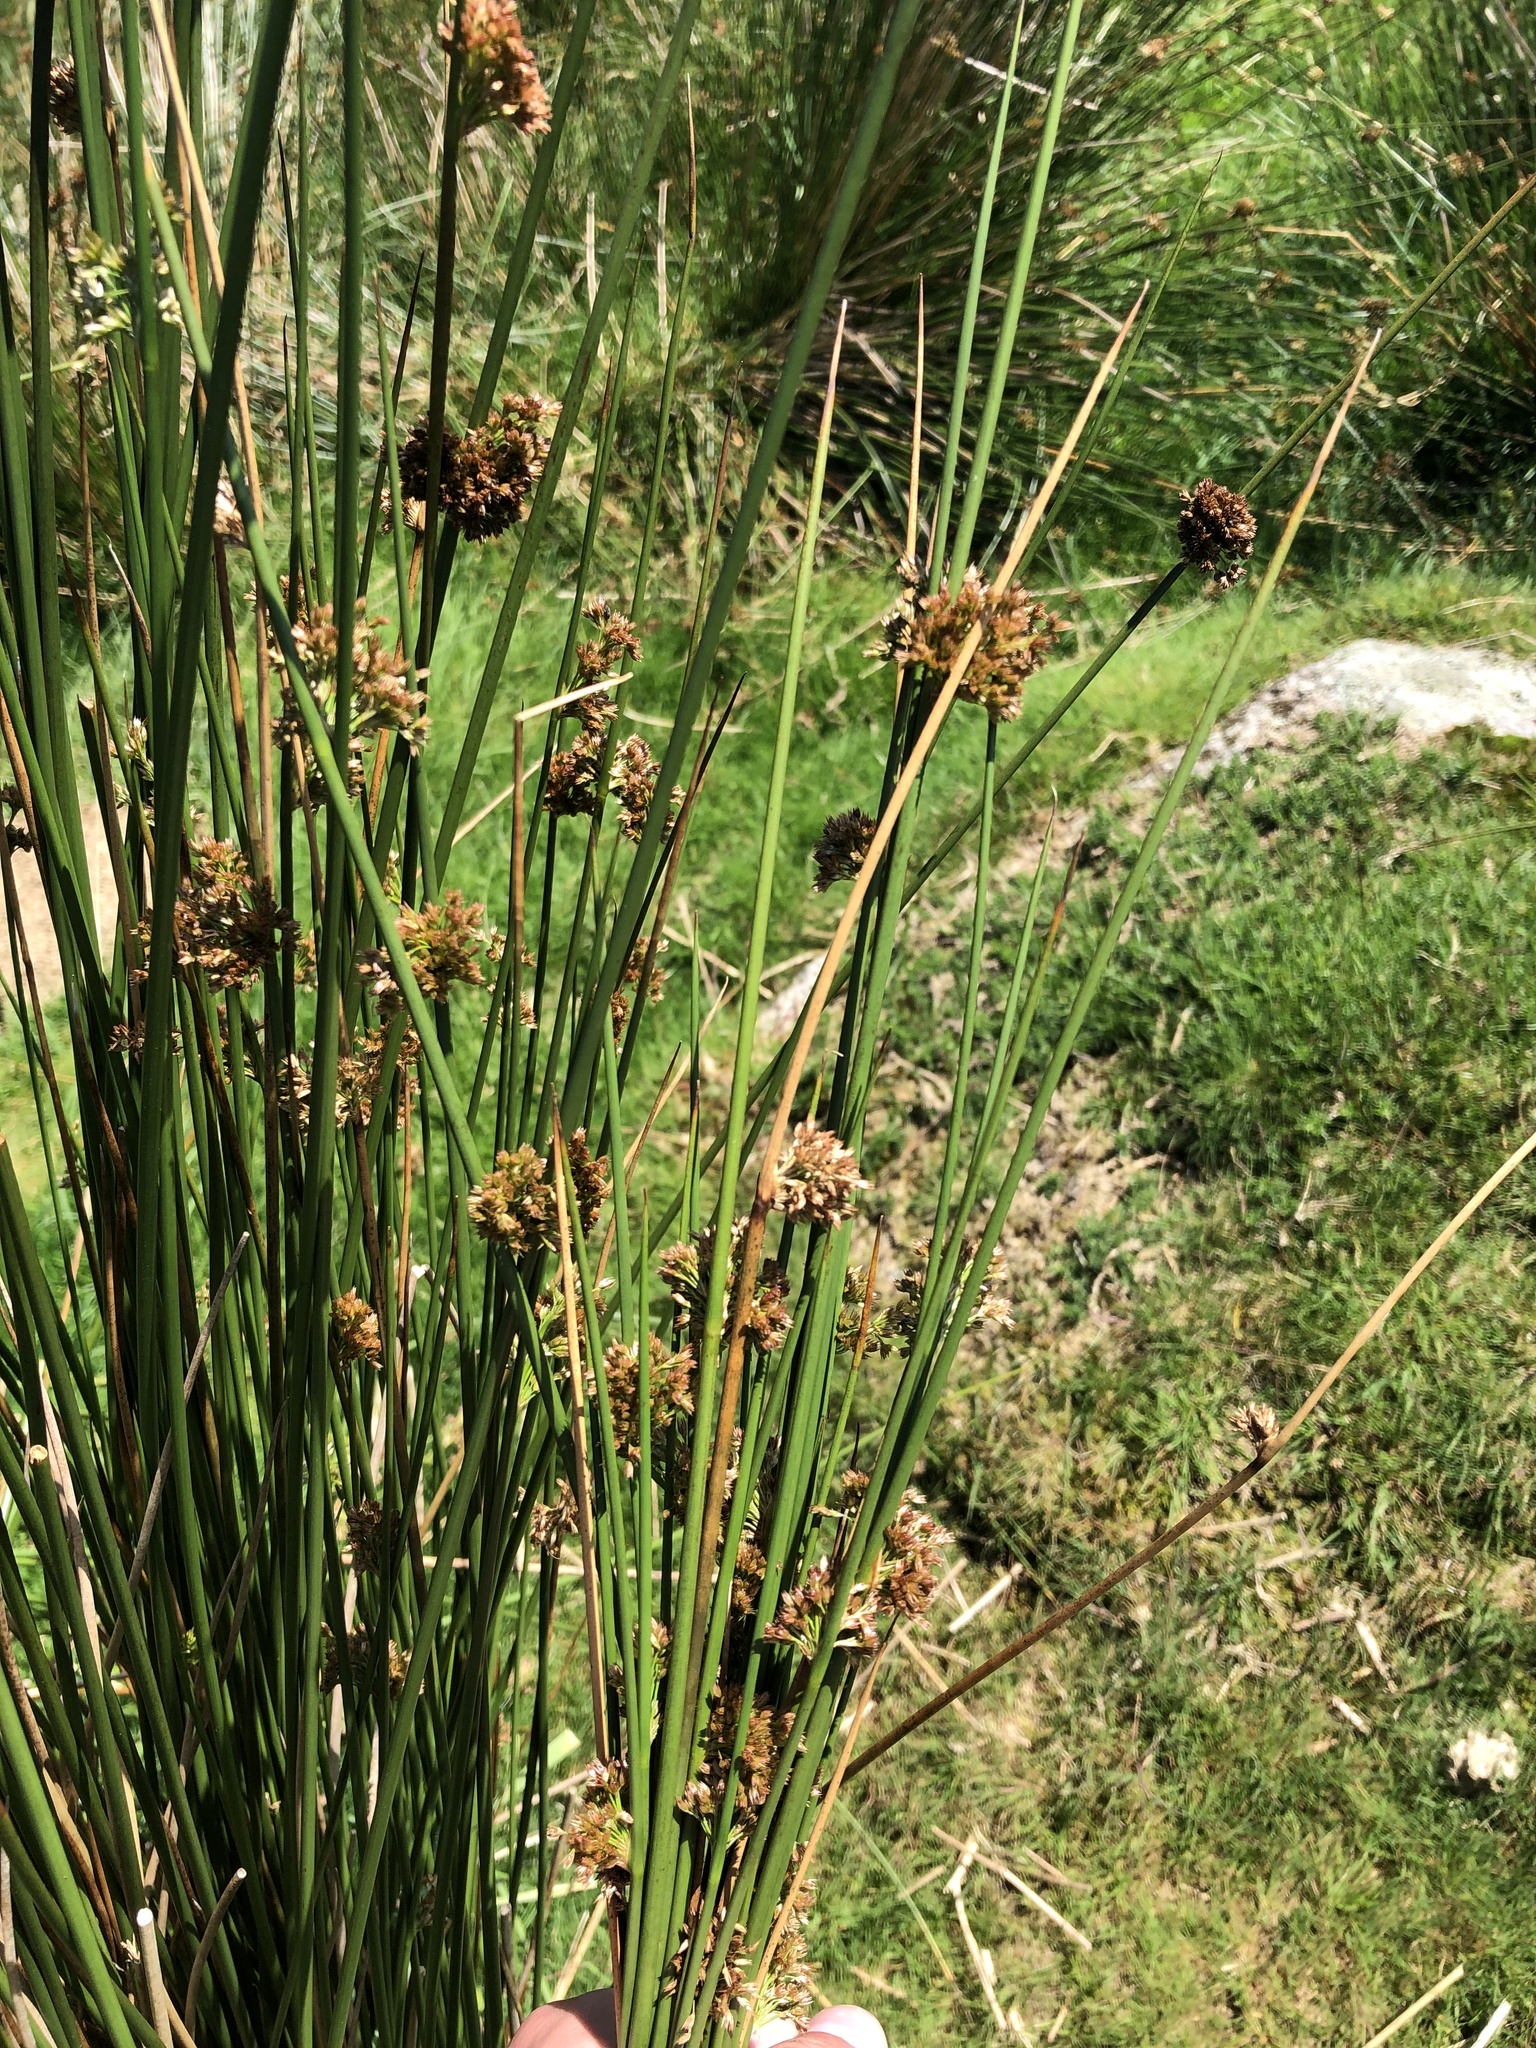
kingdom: Plantae
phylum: Tracheophyta
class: Liliopsida
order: Poales
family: Juncaceae
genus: Juncus
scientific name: Juncus effusus
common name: Soft rush
